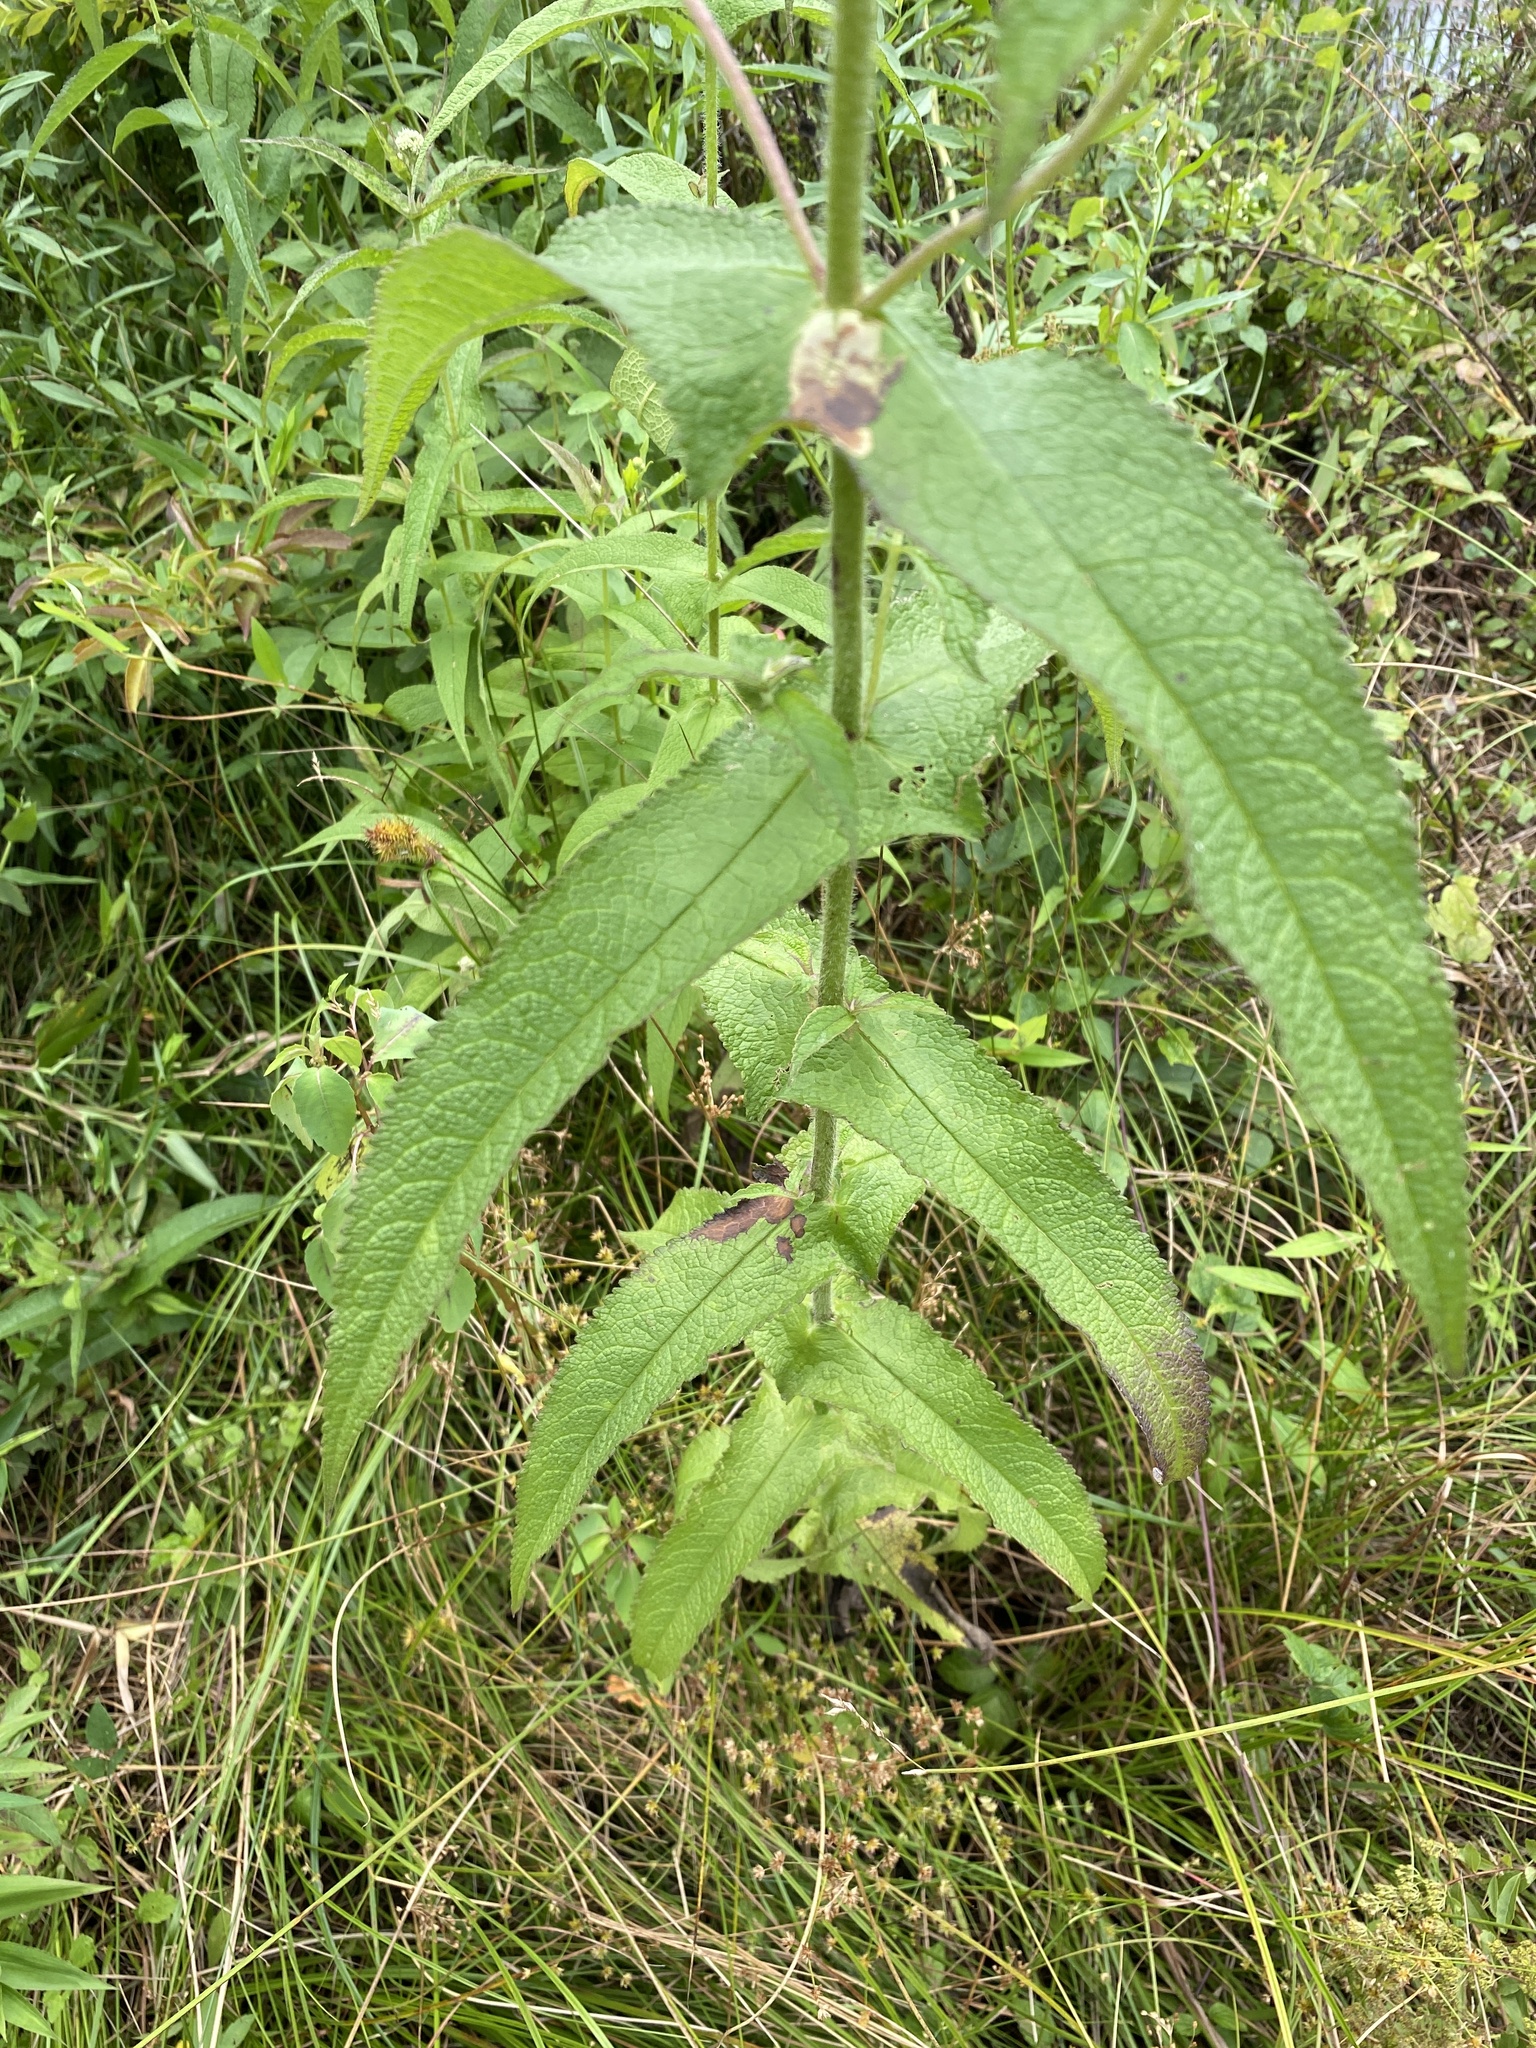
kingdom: Plantae
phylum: Tracheophyta
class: Magnoliopsida
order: Asterales
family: Asteraceae
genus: Eupatorium
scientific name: Eupatorium perfoliatum
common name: Boneset
